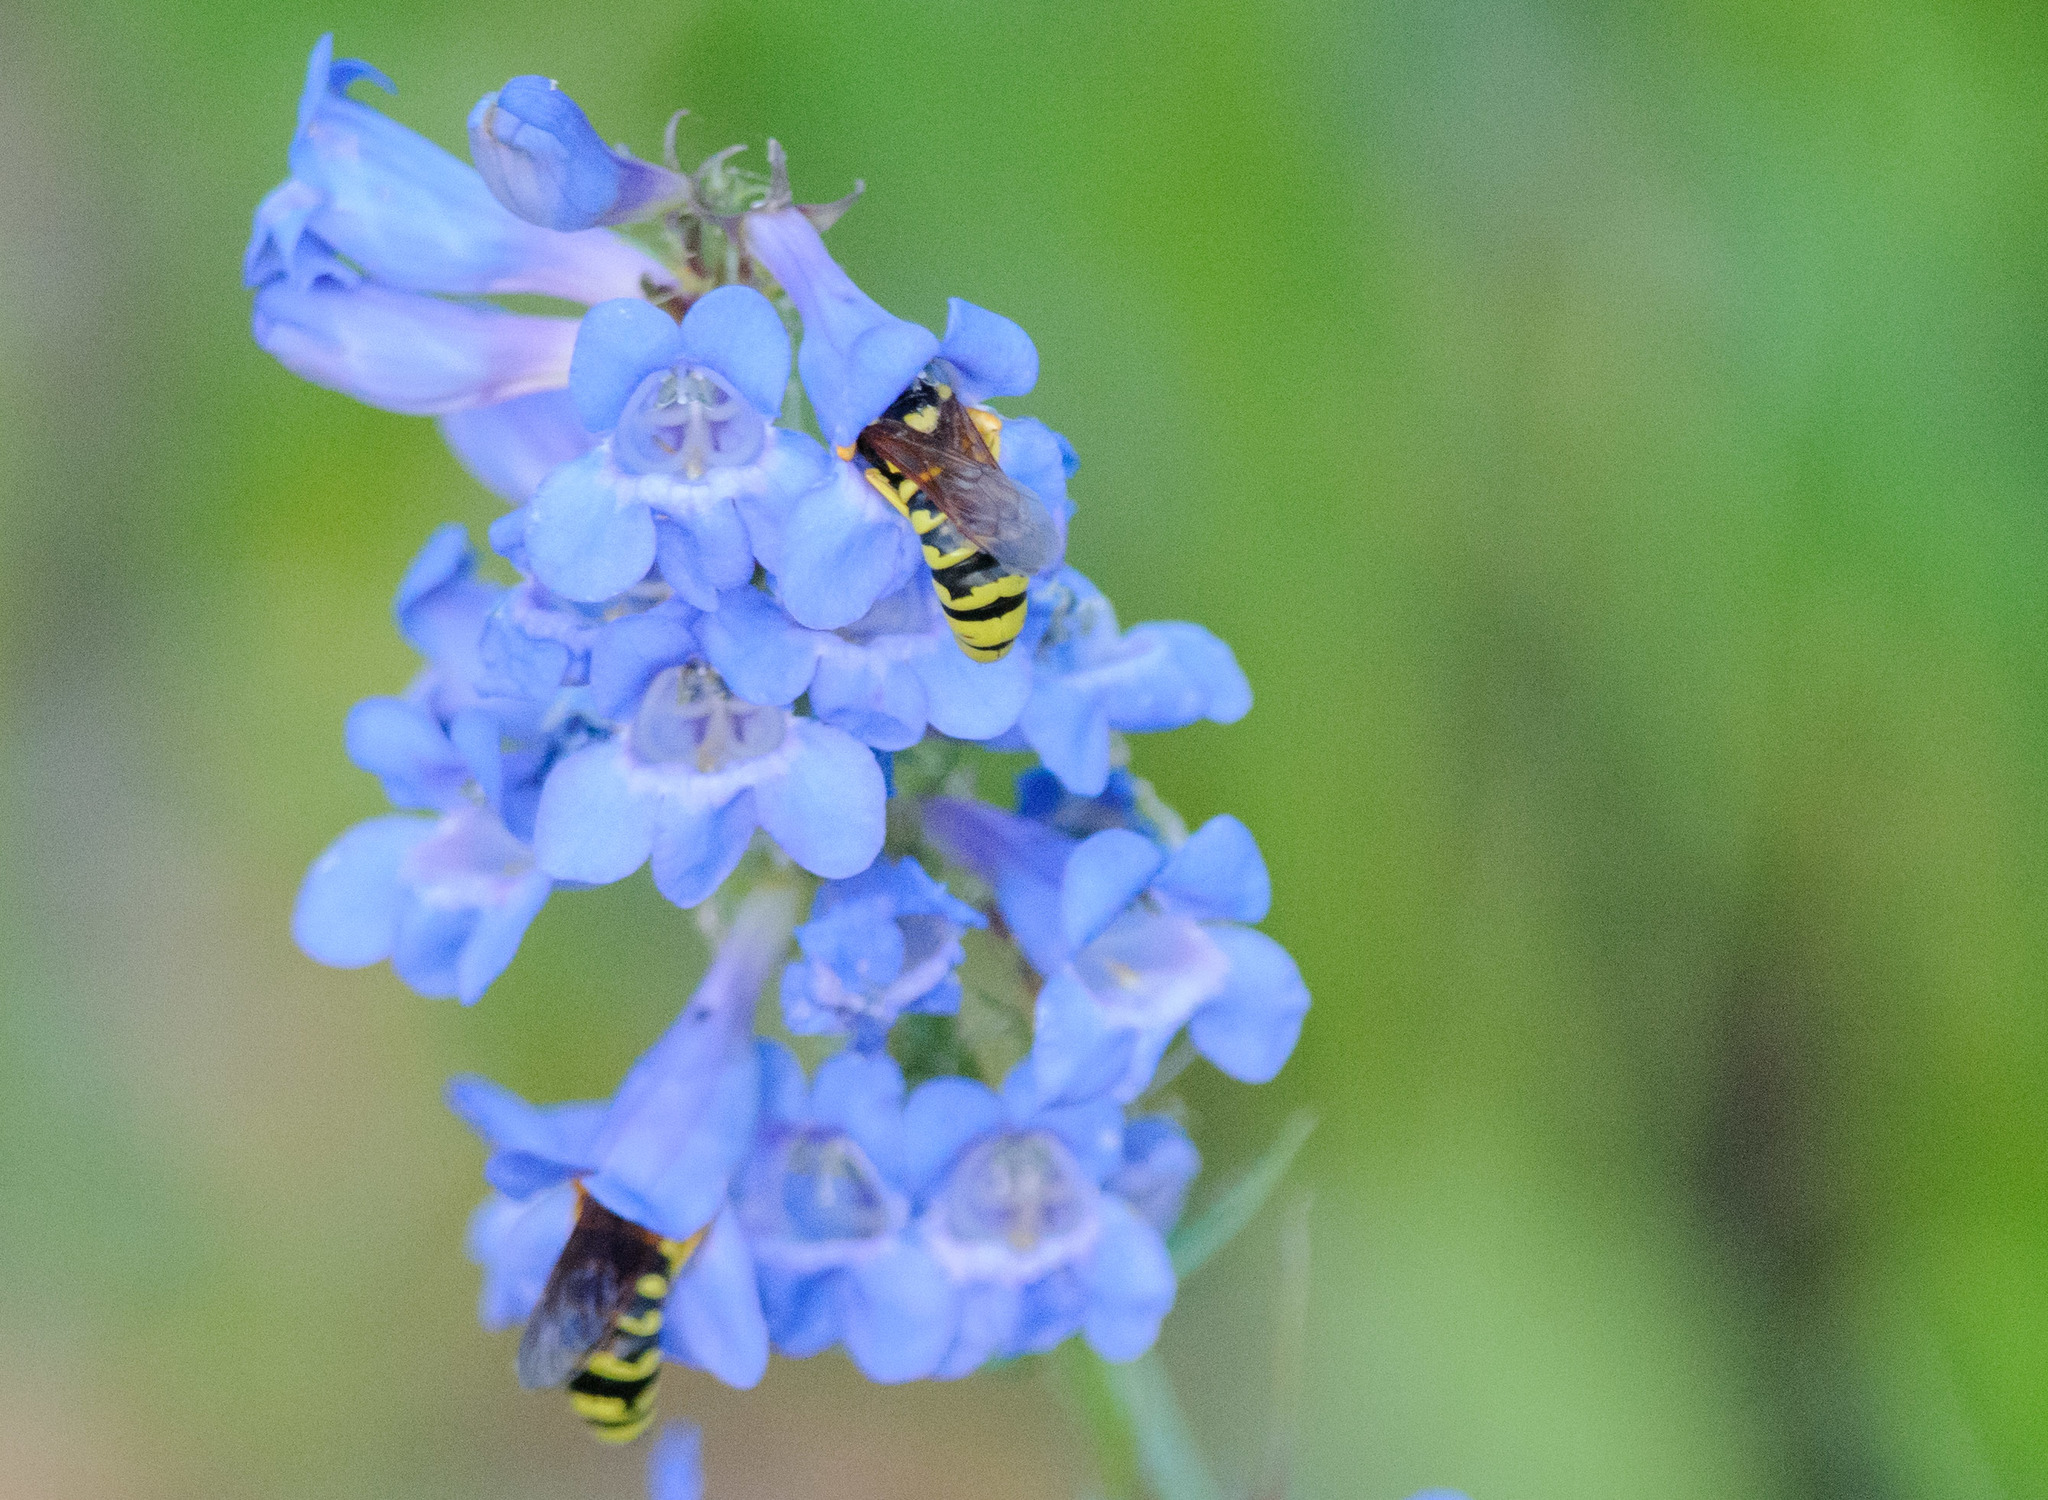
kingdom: Animalia
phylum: Arthropoda
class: Insecta
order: Hymenoptera
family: Masaridae
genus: Pseudomasaris
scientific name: Pseudomasaris
